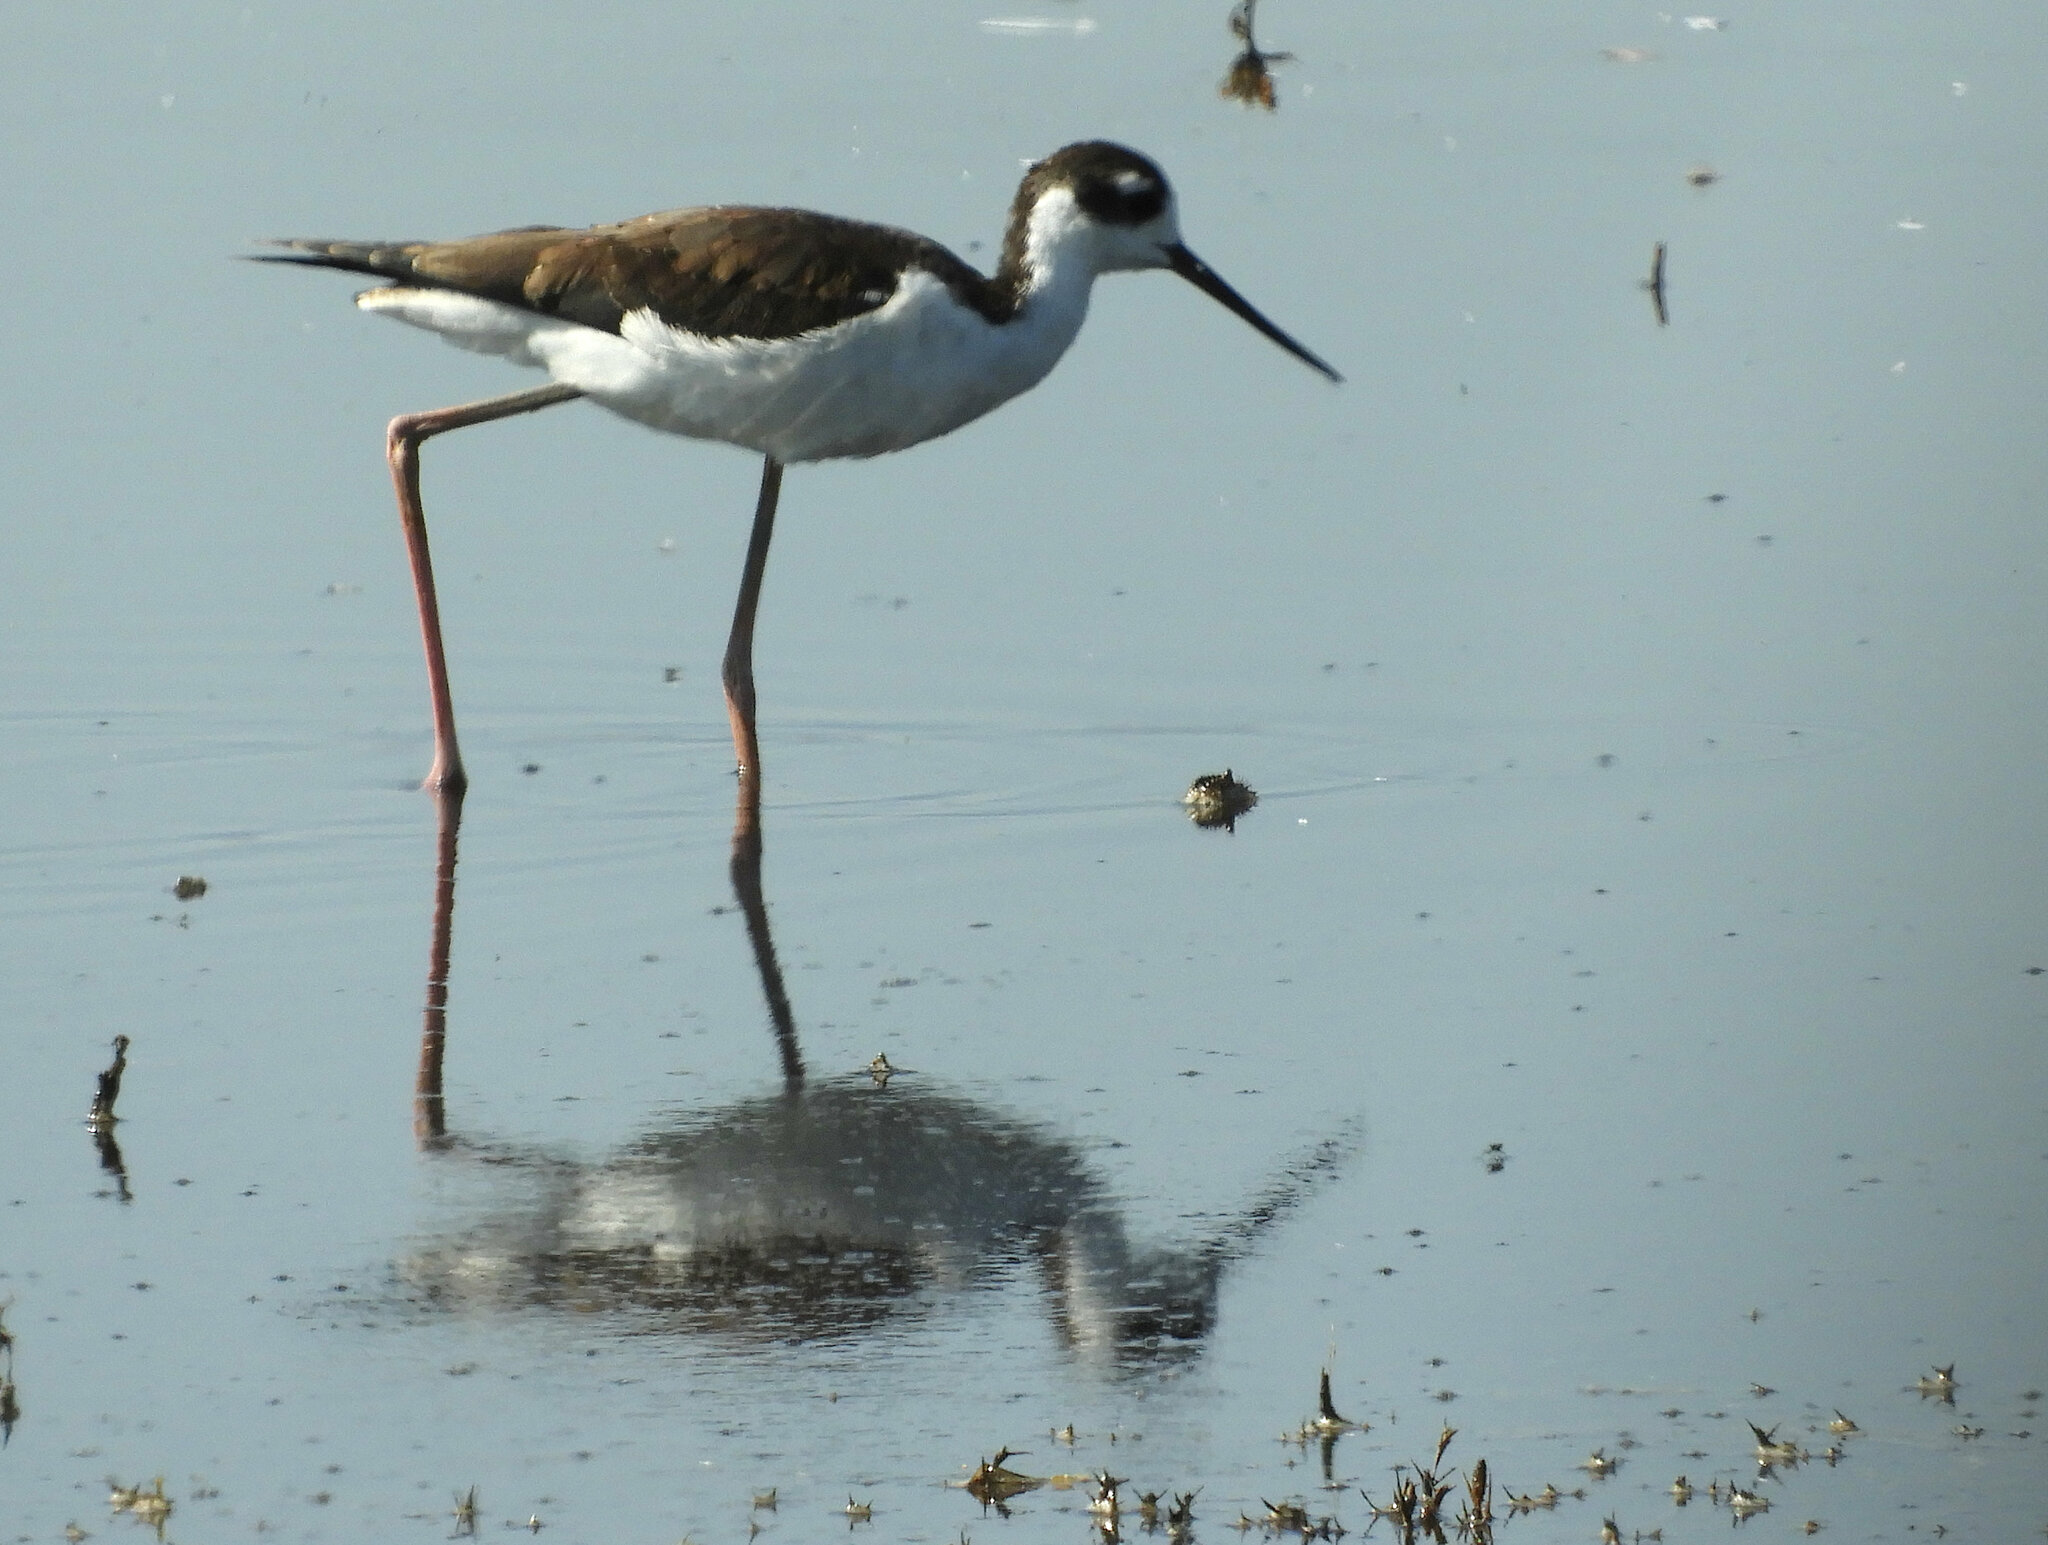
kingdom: Animalia
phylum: Chordata
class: Aves
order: Charadriiformes
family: Recurvirostridae
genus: Himantopus
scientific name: Himantopus mexicanus
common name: Black-necked stilt
